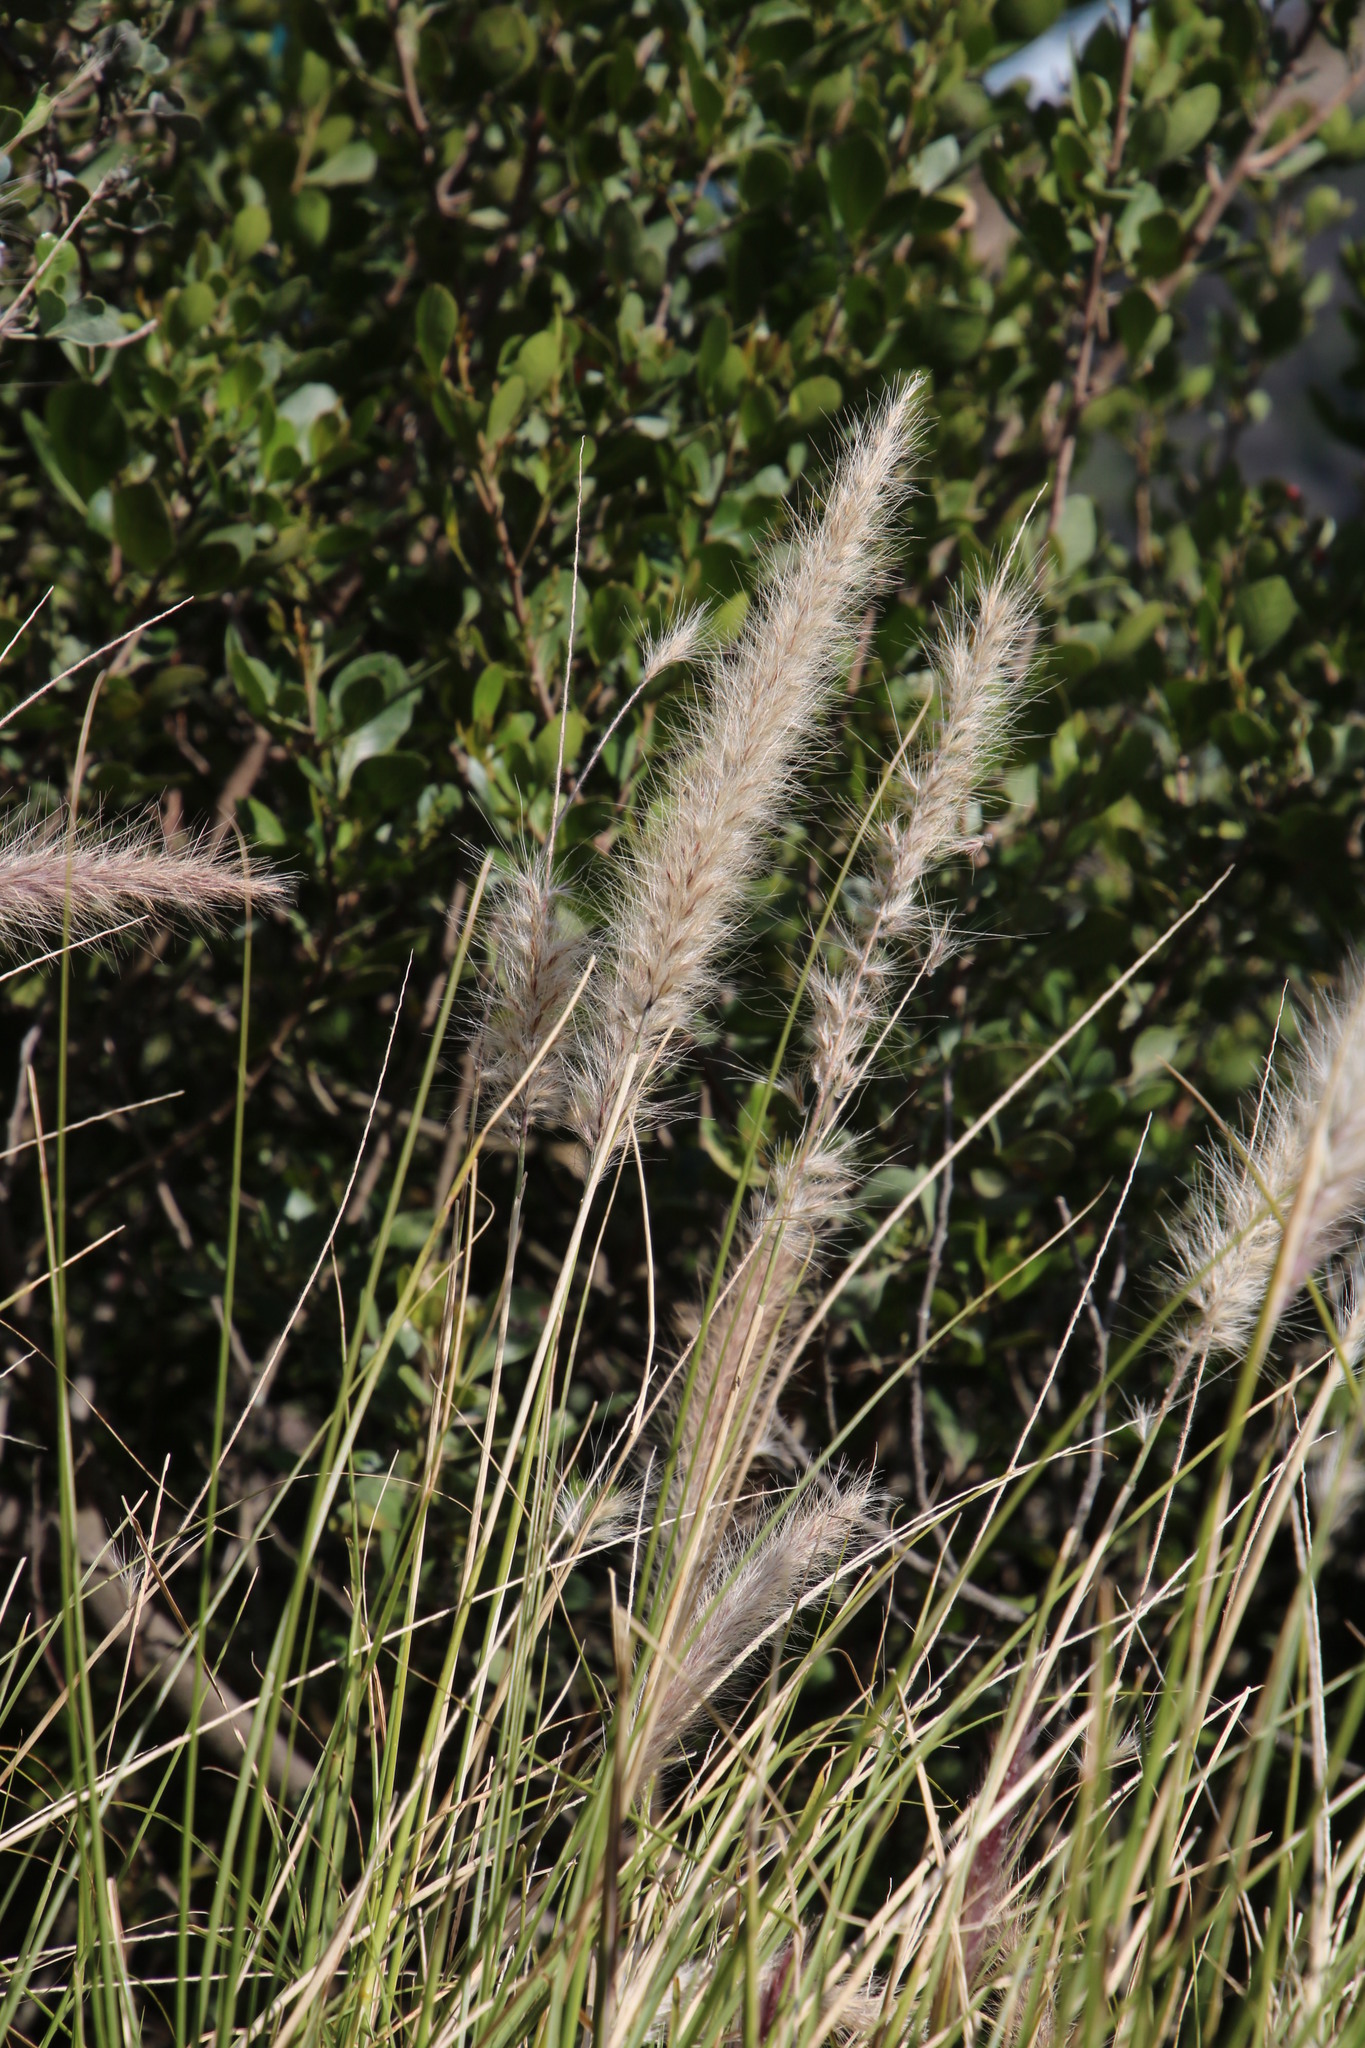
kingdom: Plantae
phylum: Tracheophyta
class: Liliopsida
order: Poales
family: Poaceae
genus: Cenchrus
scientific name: Cenchrus setaceus
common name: Crimson fountaingrass
